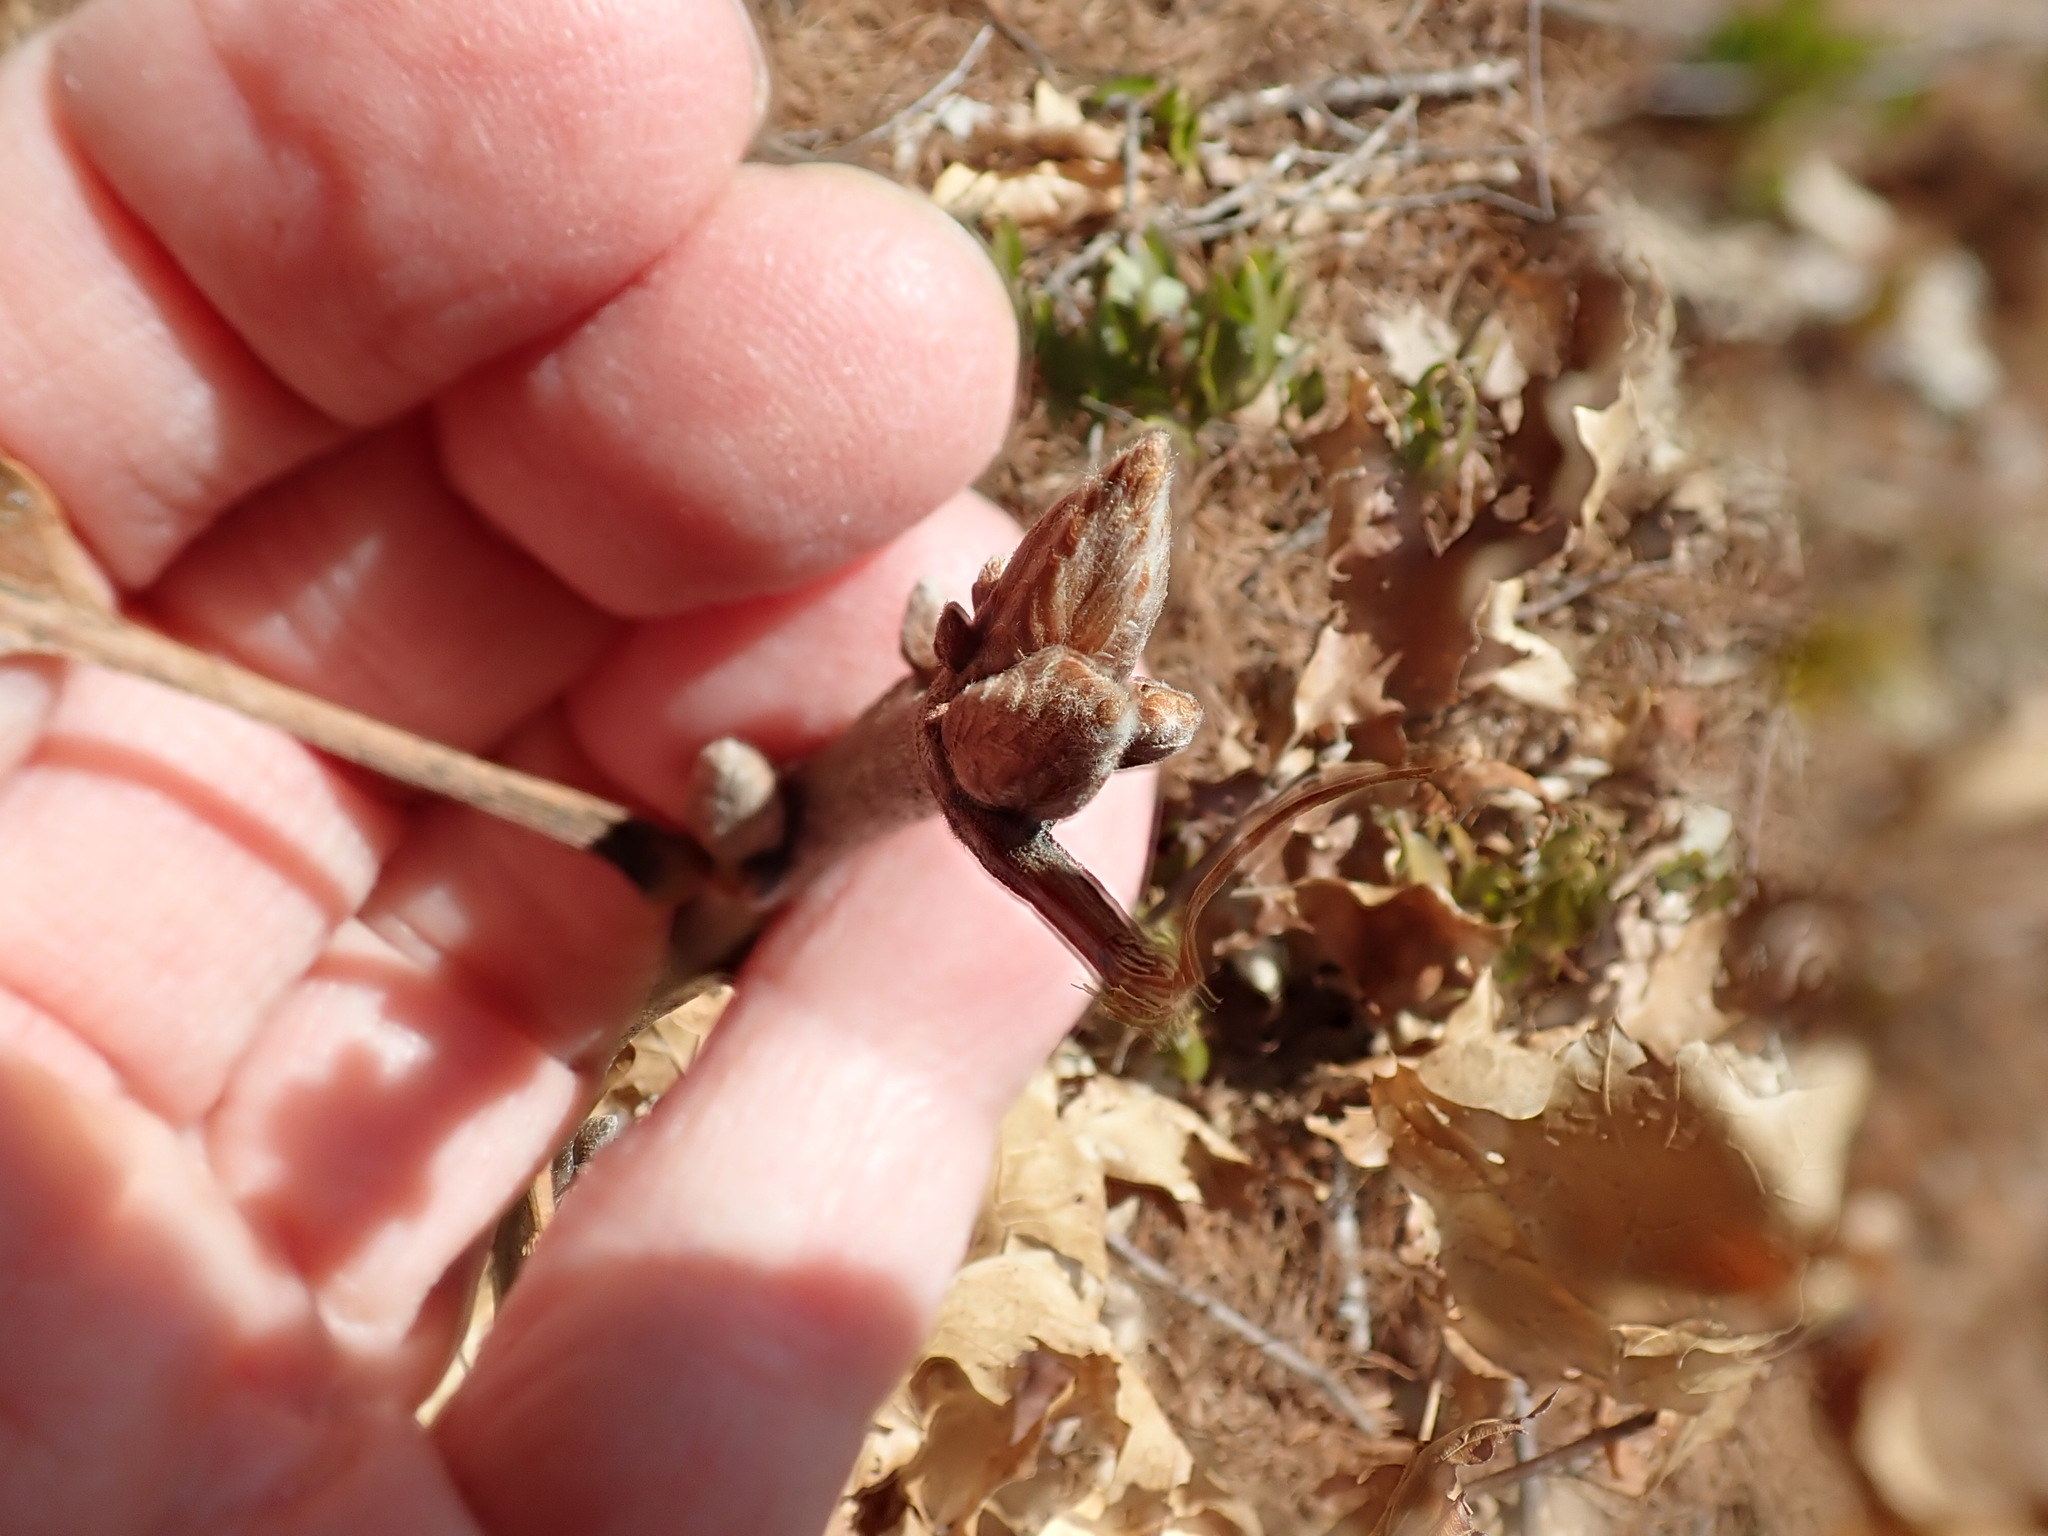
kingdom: Plantae
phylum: Tracheophyta
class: Magnoliopsida
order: Fagales
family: Fagaceae
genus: Quercus
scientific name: Quercus velutina
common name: Black oak
